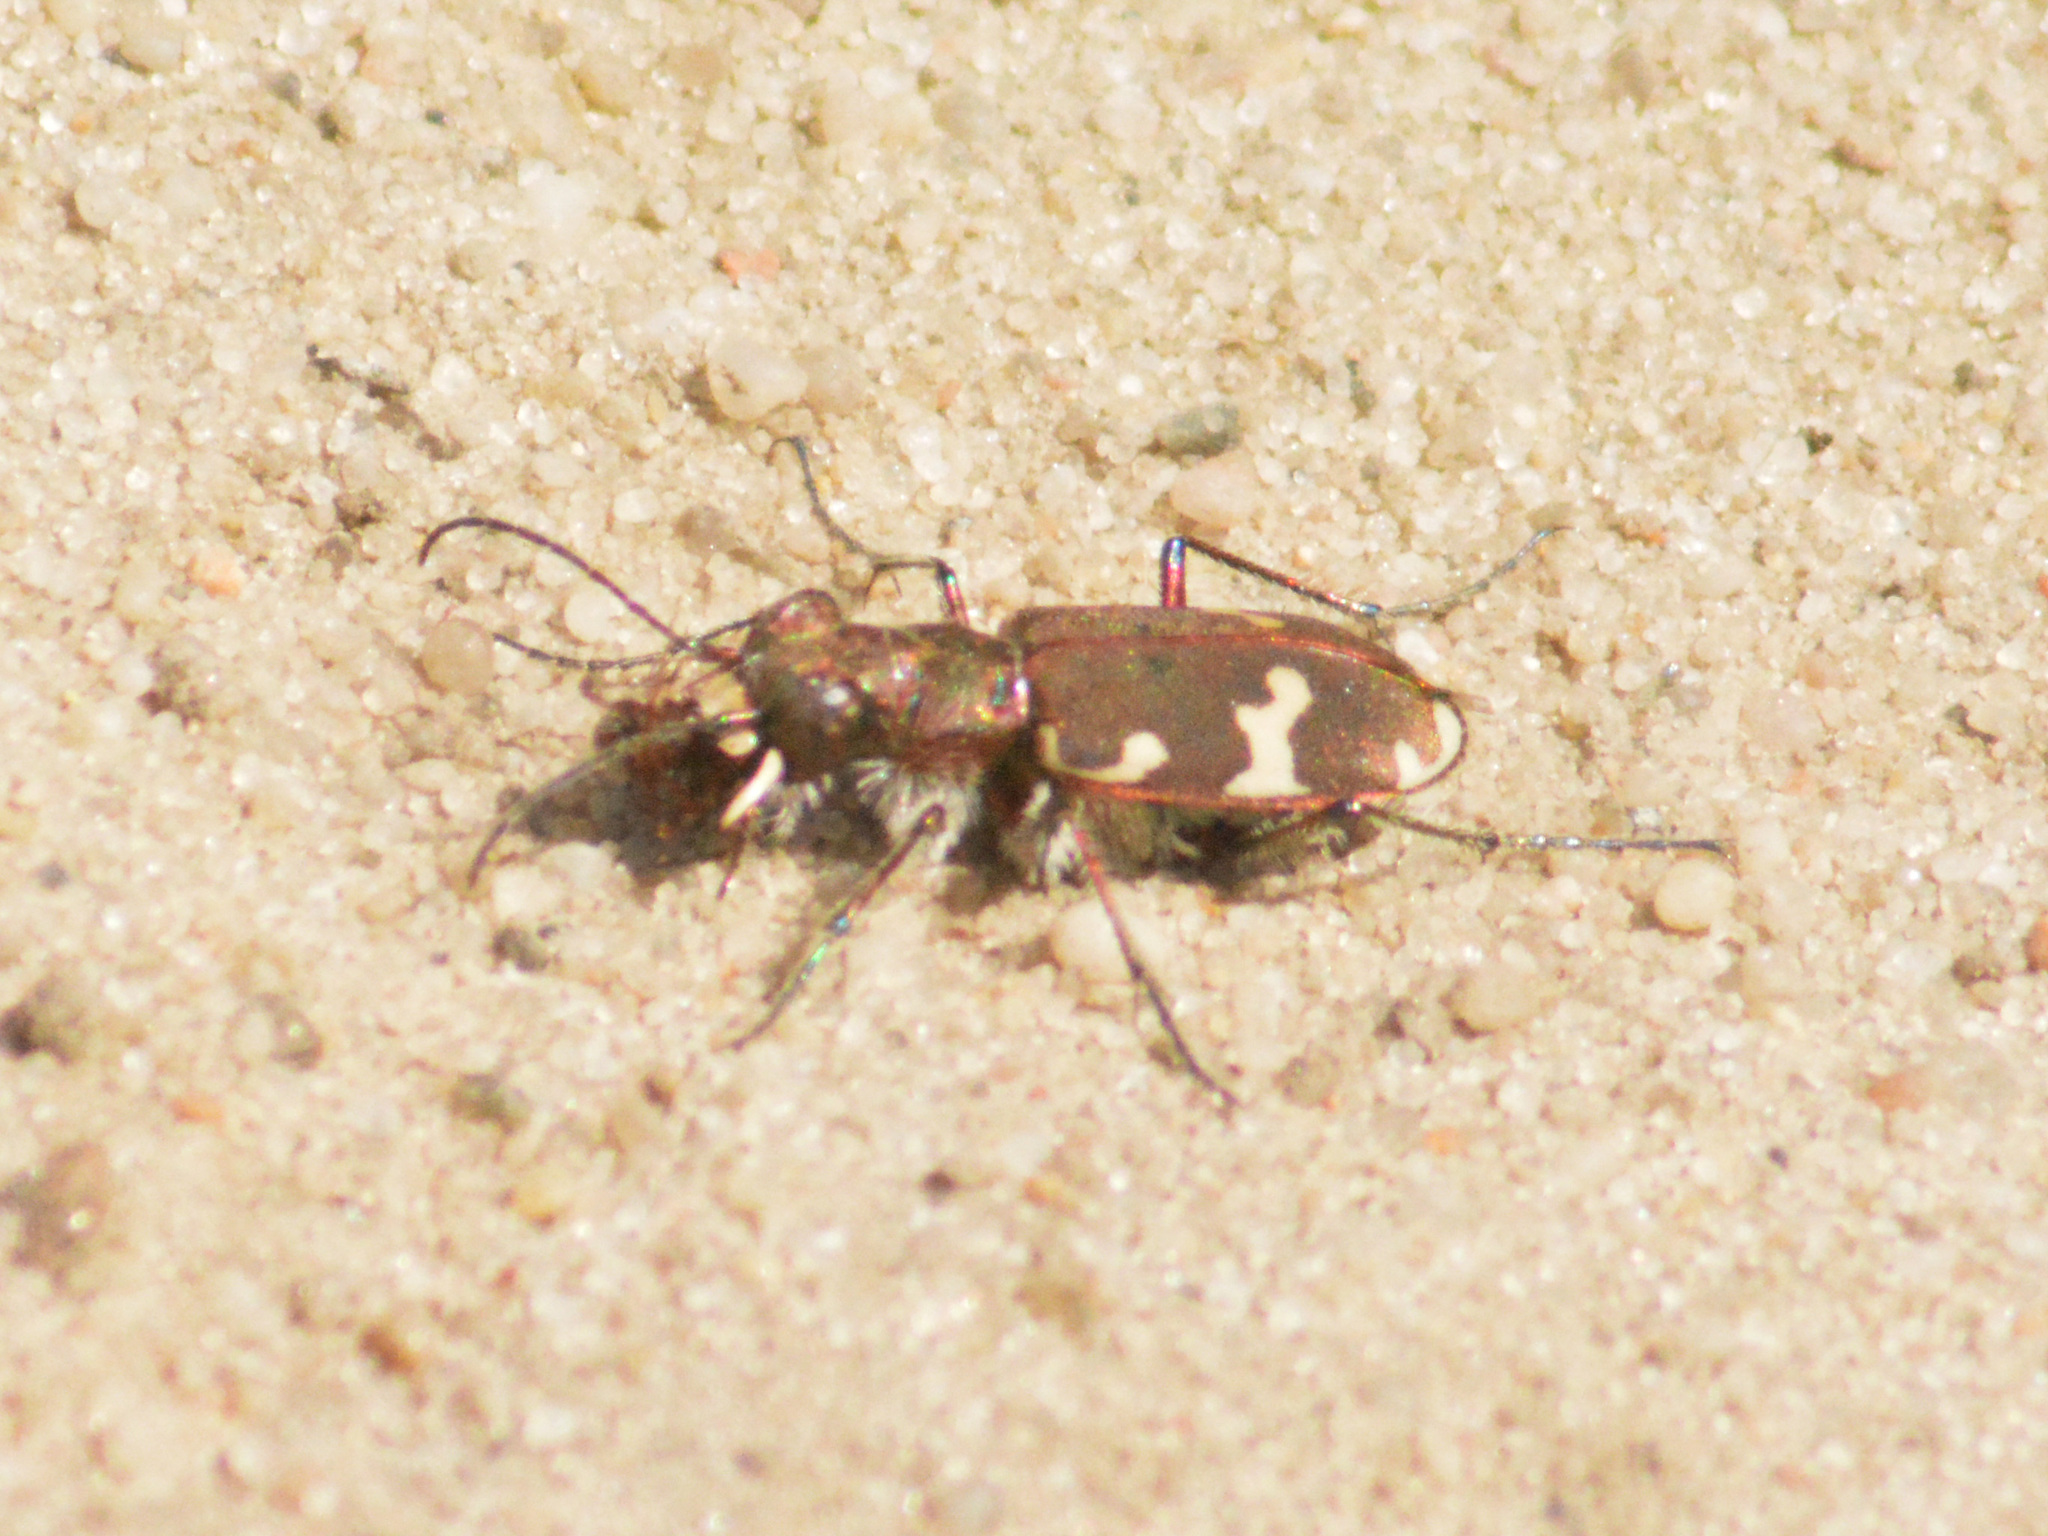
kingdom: Animalia
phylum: Arthropoda
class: Insecta
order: Coleoptera
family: Carabidae
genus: Cicindela
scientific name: Cicindela hybrida
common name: Northern dune tiger beetle
